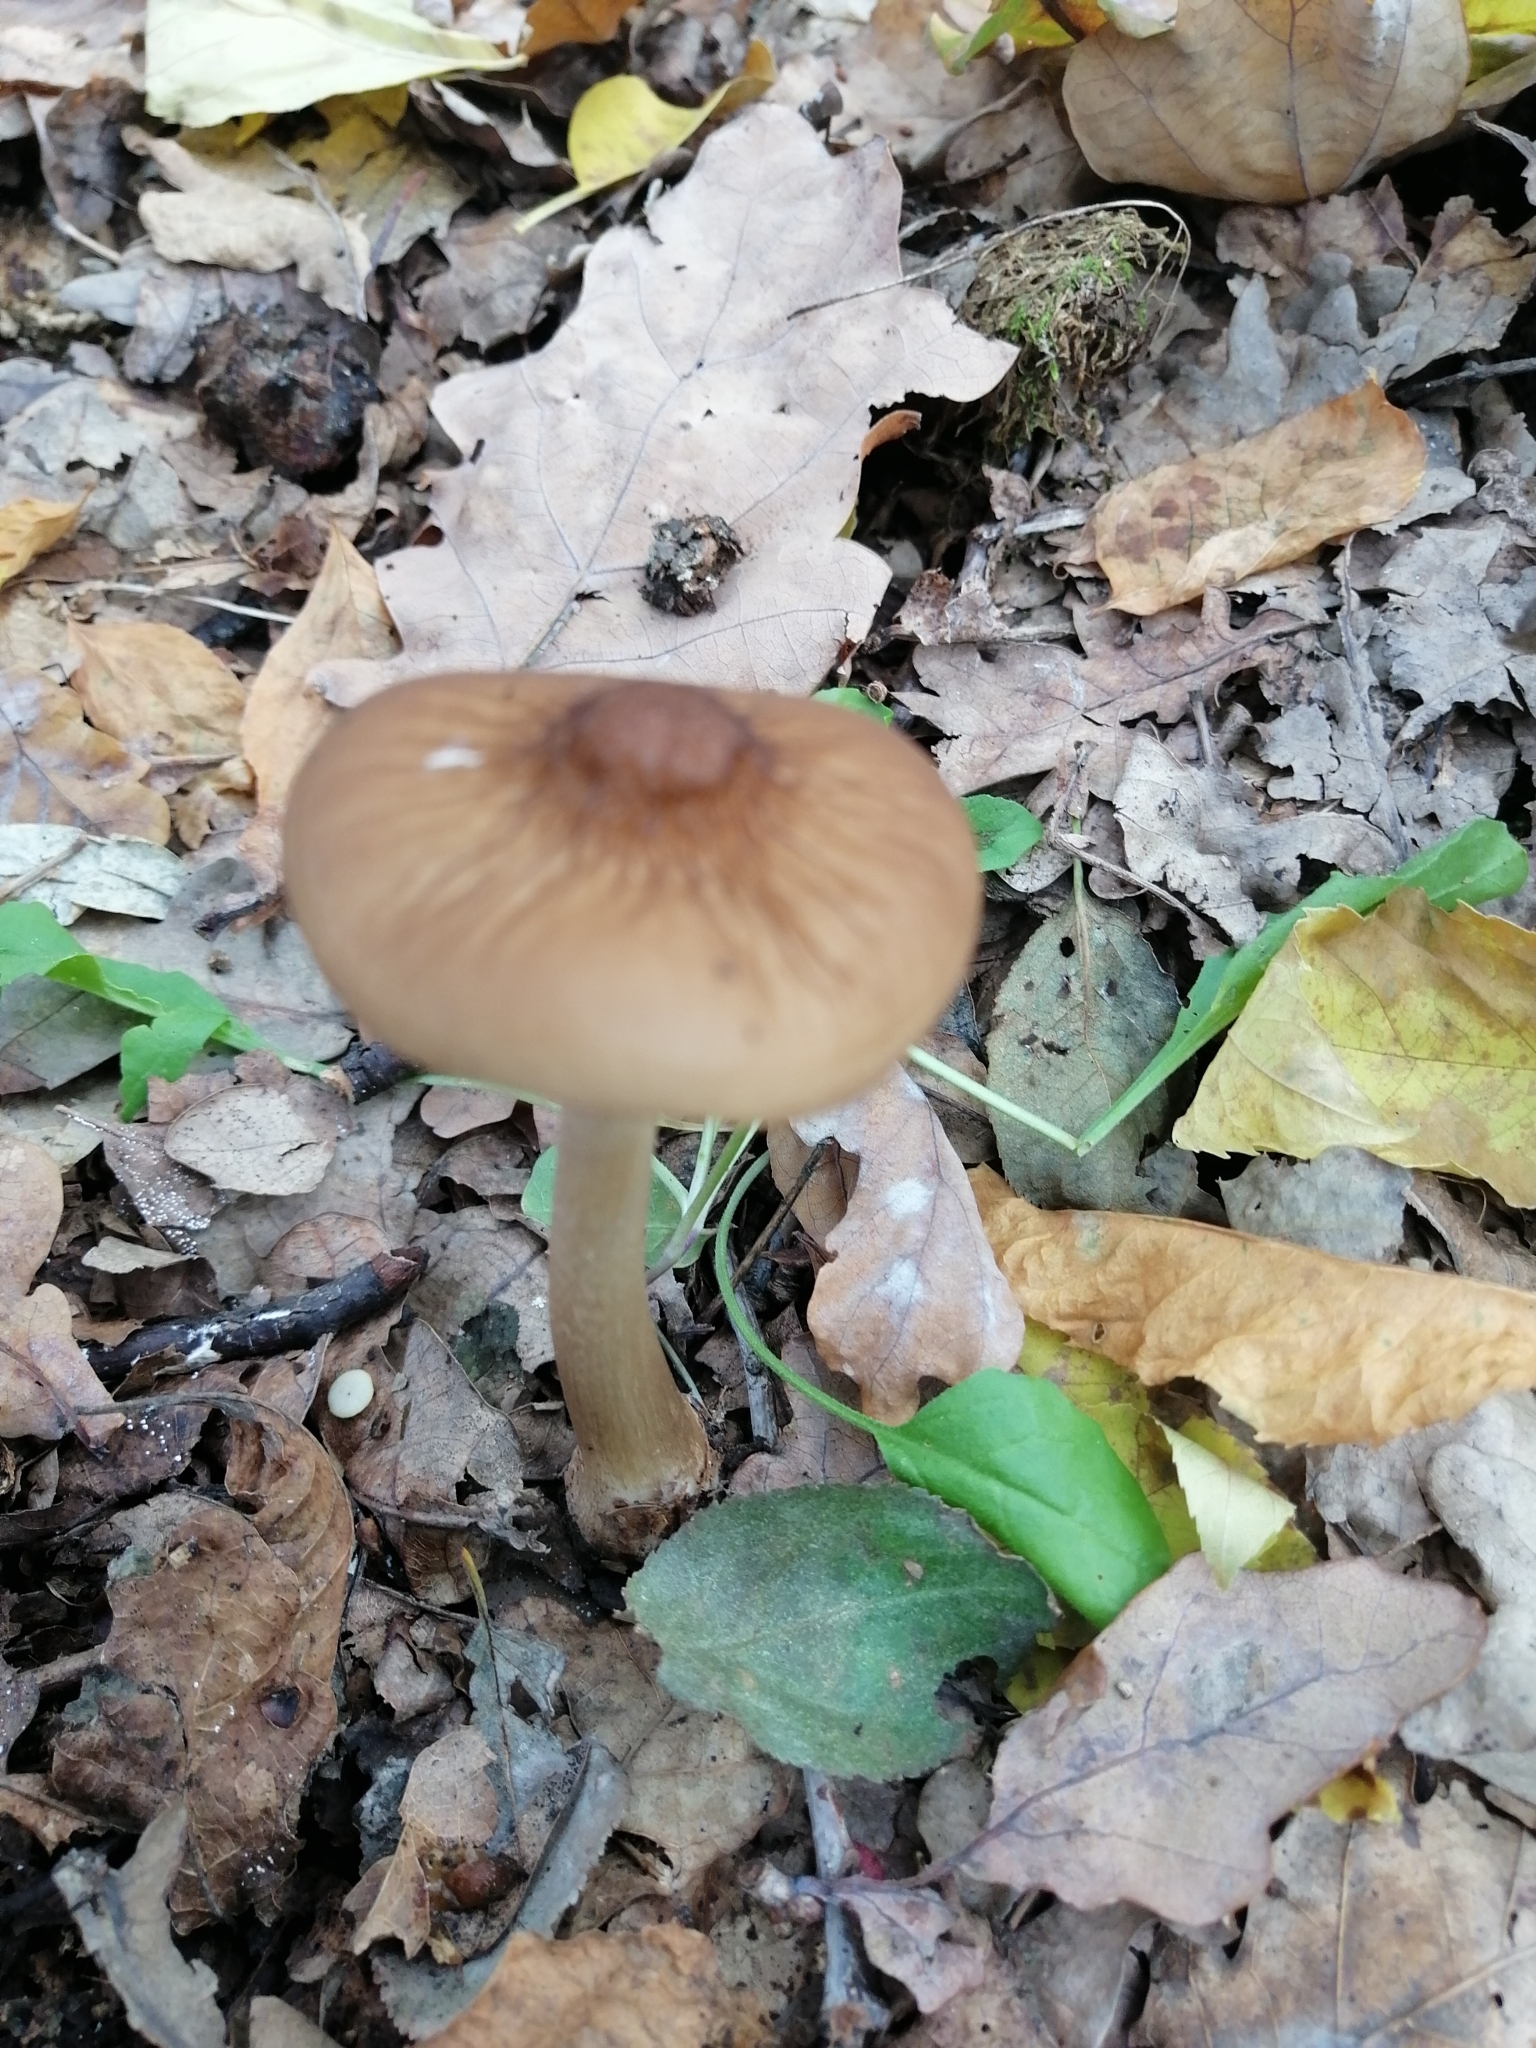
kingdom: Fungi
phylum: Basidiomycota
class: Agaricomycetes
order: Agaricales
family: Physalacriaceae
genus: Hymenopellis
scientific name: Hymenopellis radicata
